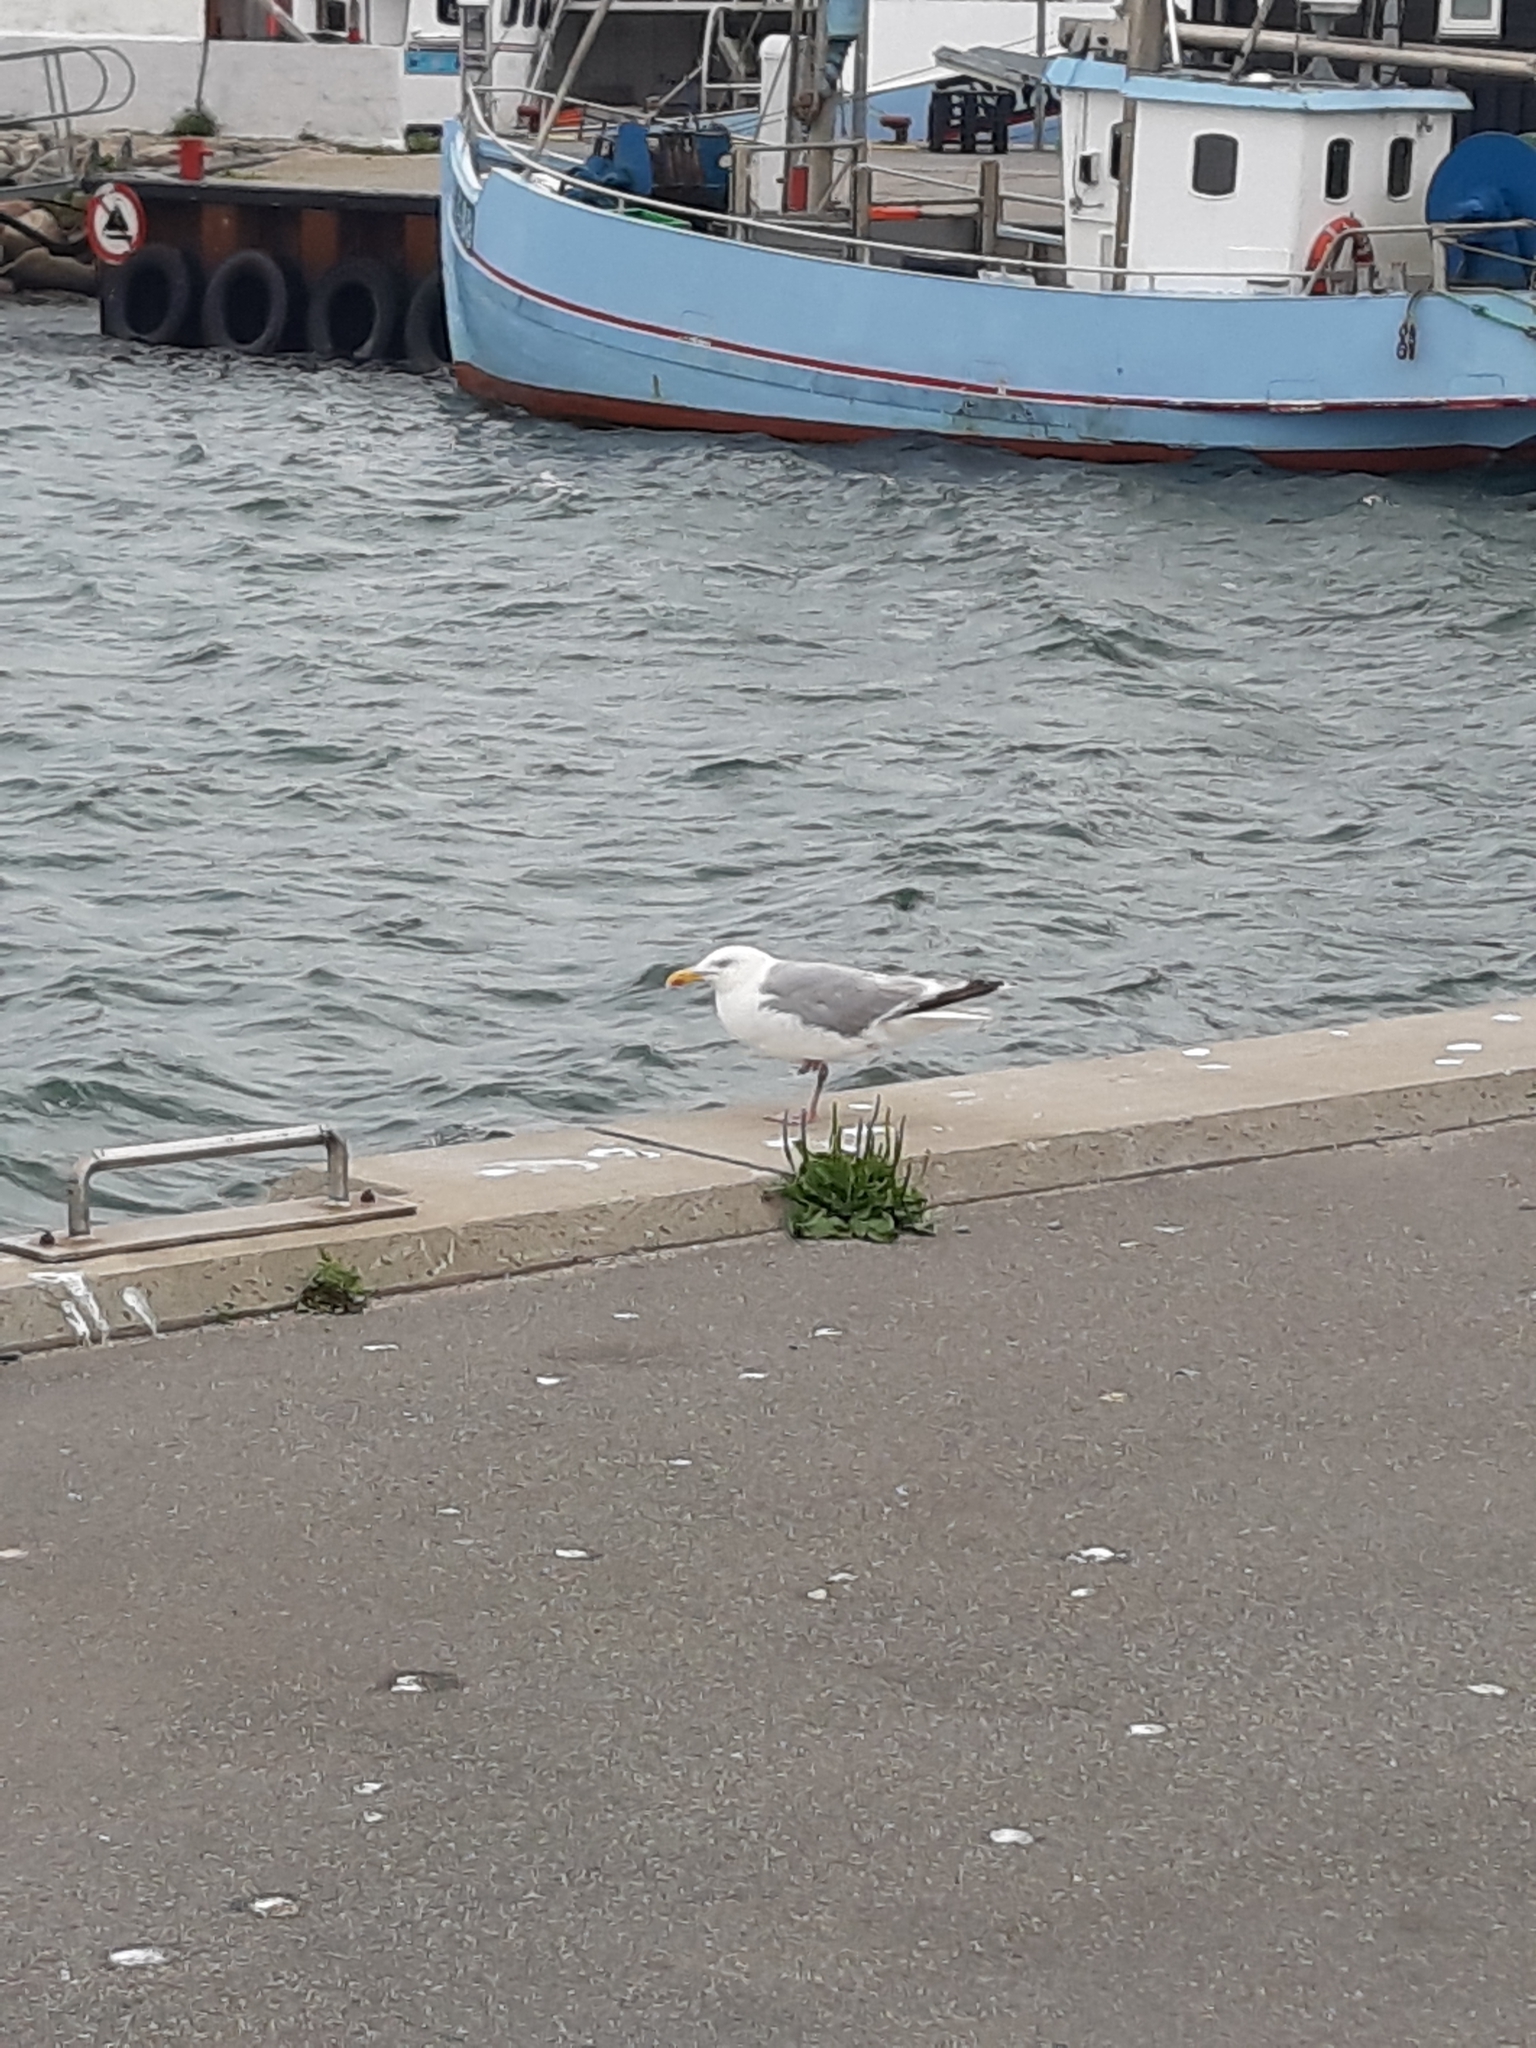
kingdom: Animalia
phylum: Chordata
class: Aves
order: Charadriiformes
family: Laridae
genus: Larus
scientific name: Larus argentatus
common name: Herring gull
